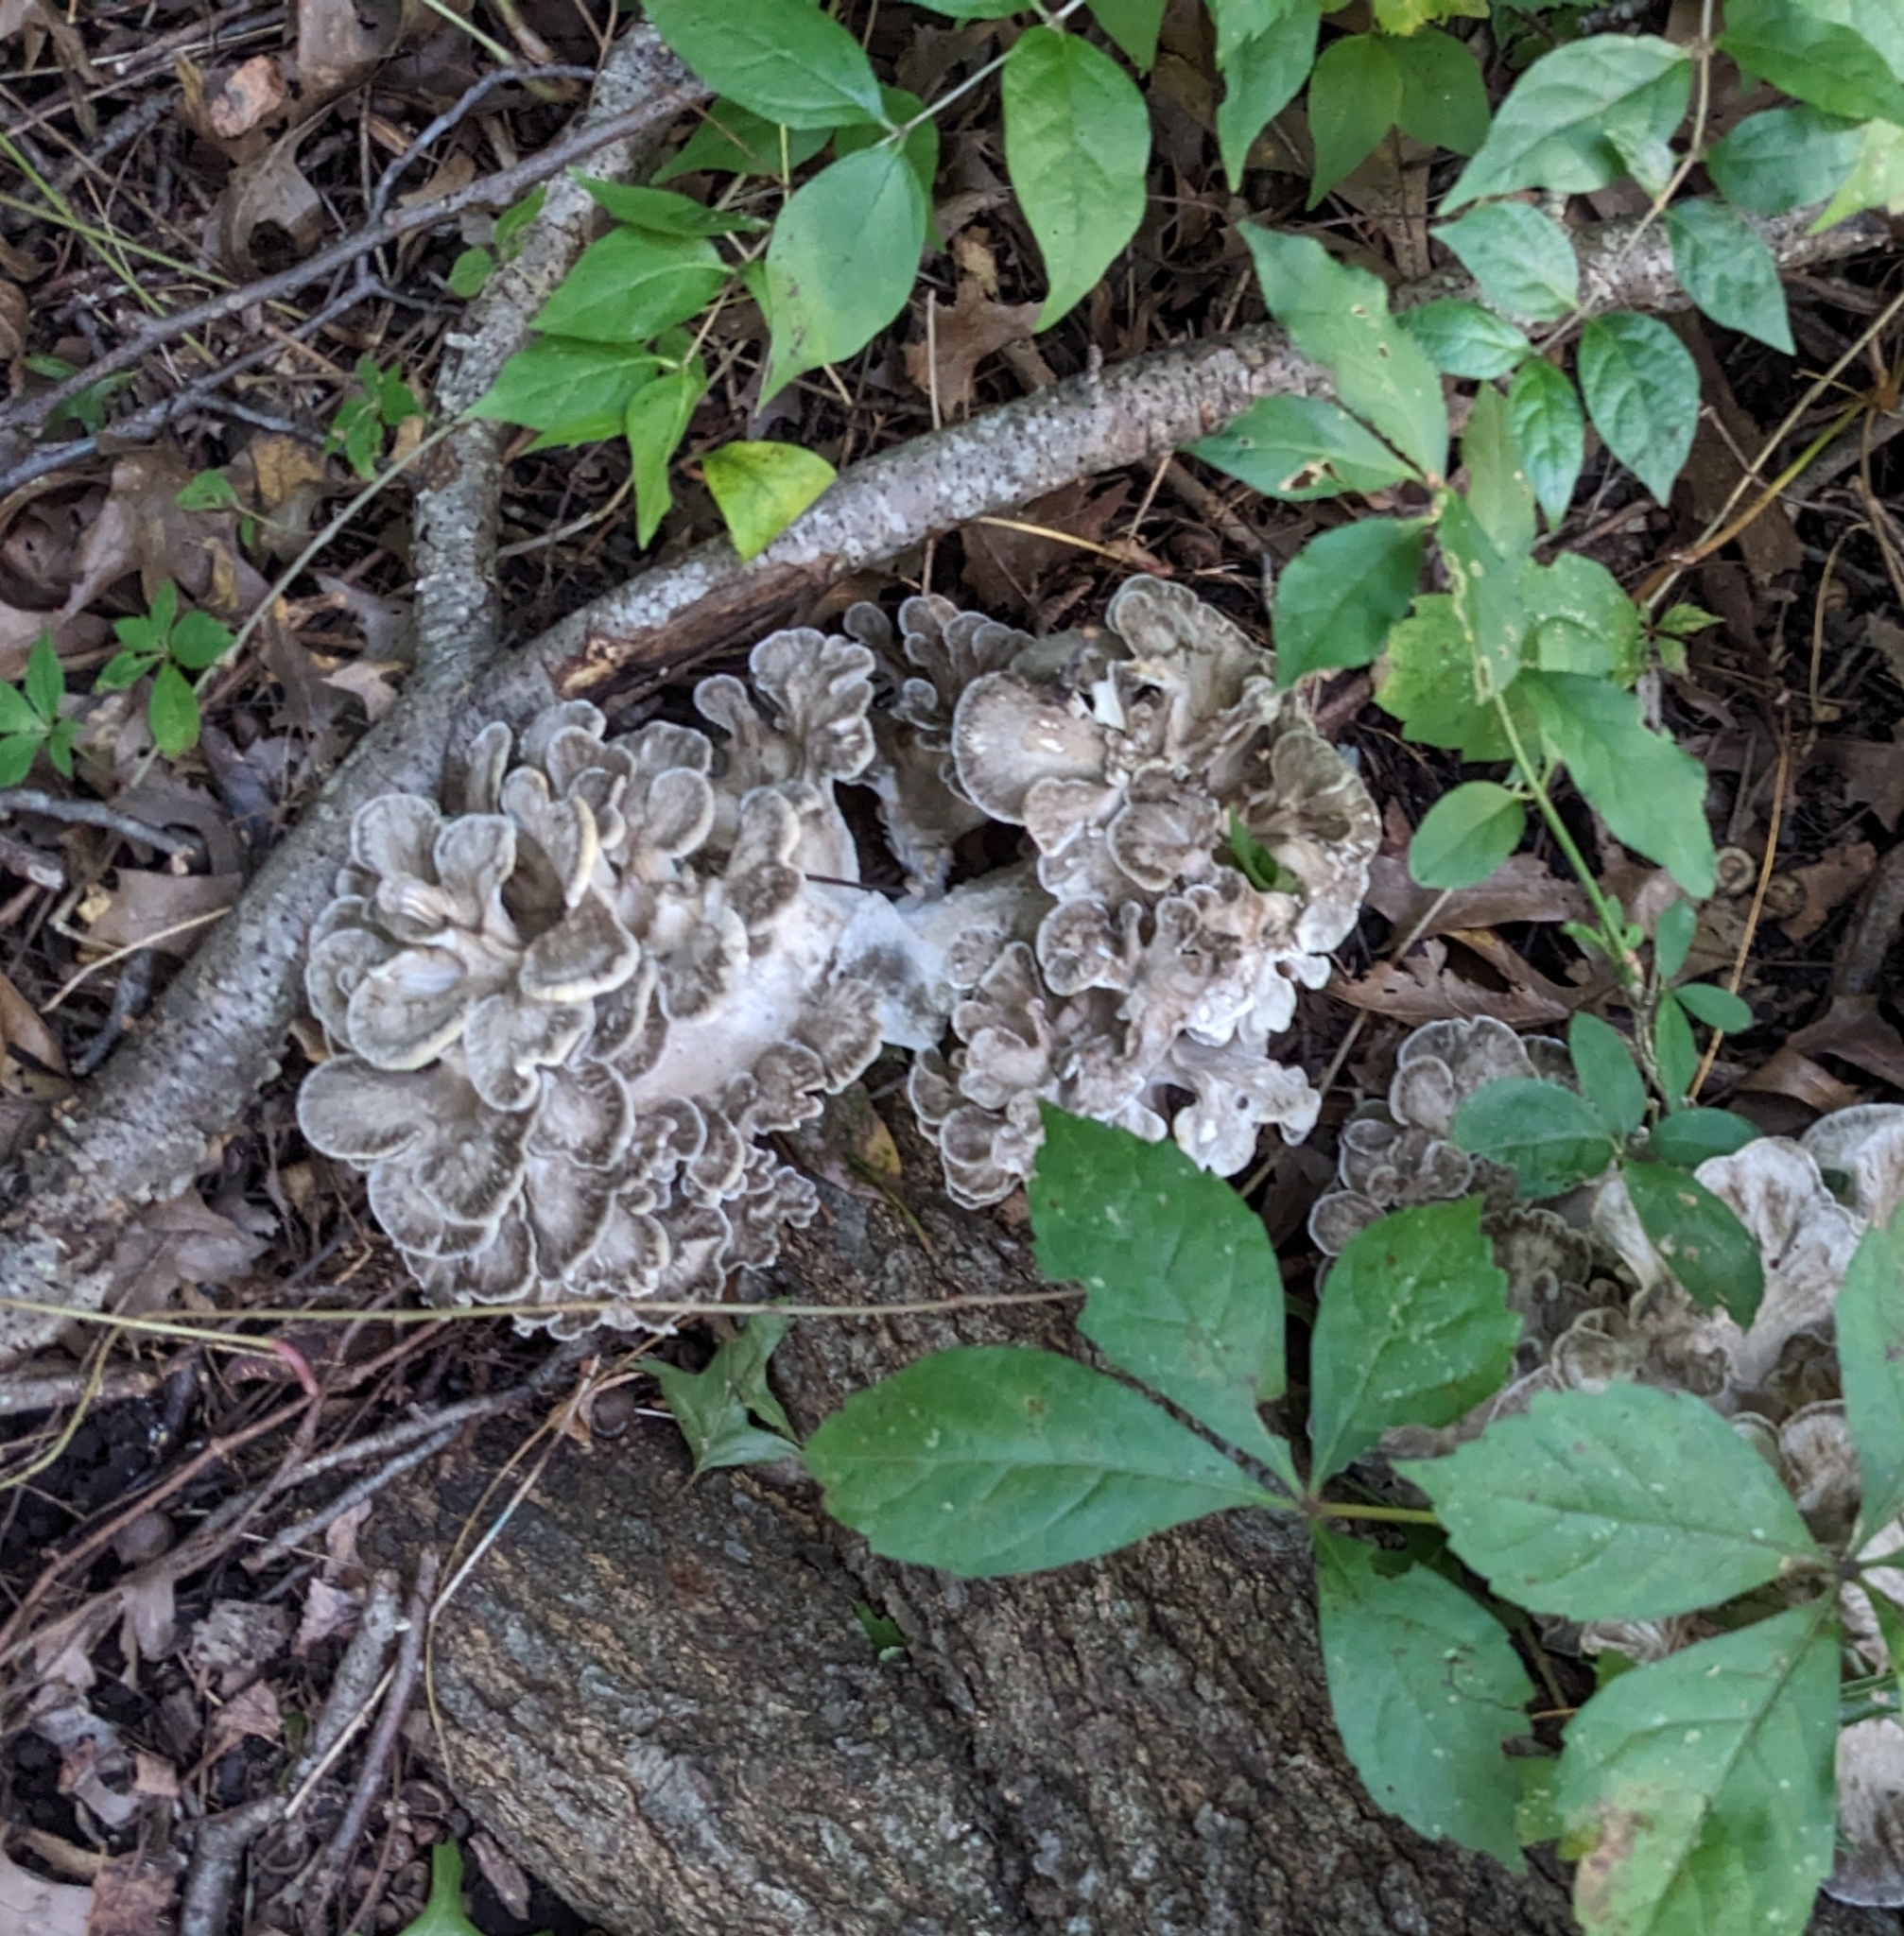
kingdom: Fungi
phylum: Basidiomycota
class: Agaricomycetes
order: Polyporales
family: Grifolaceae
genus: Grifola
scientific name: Grifola frondosa
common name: Hen of the woods
